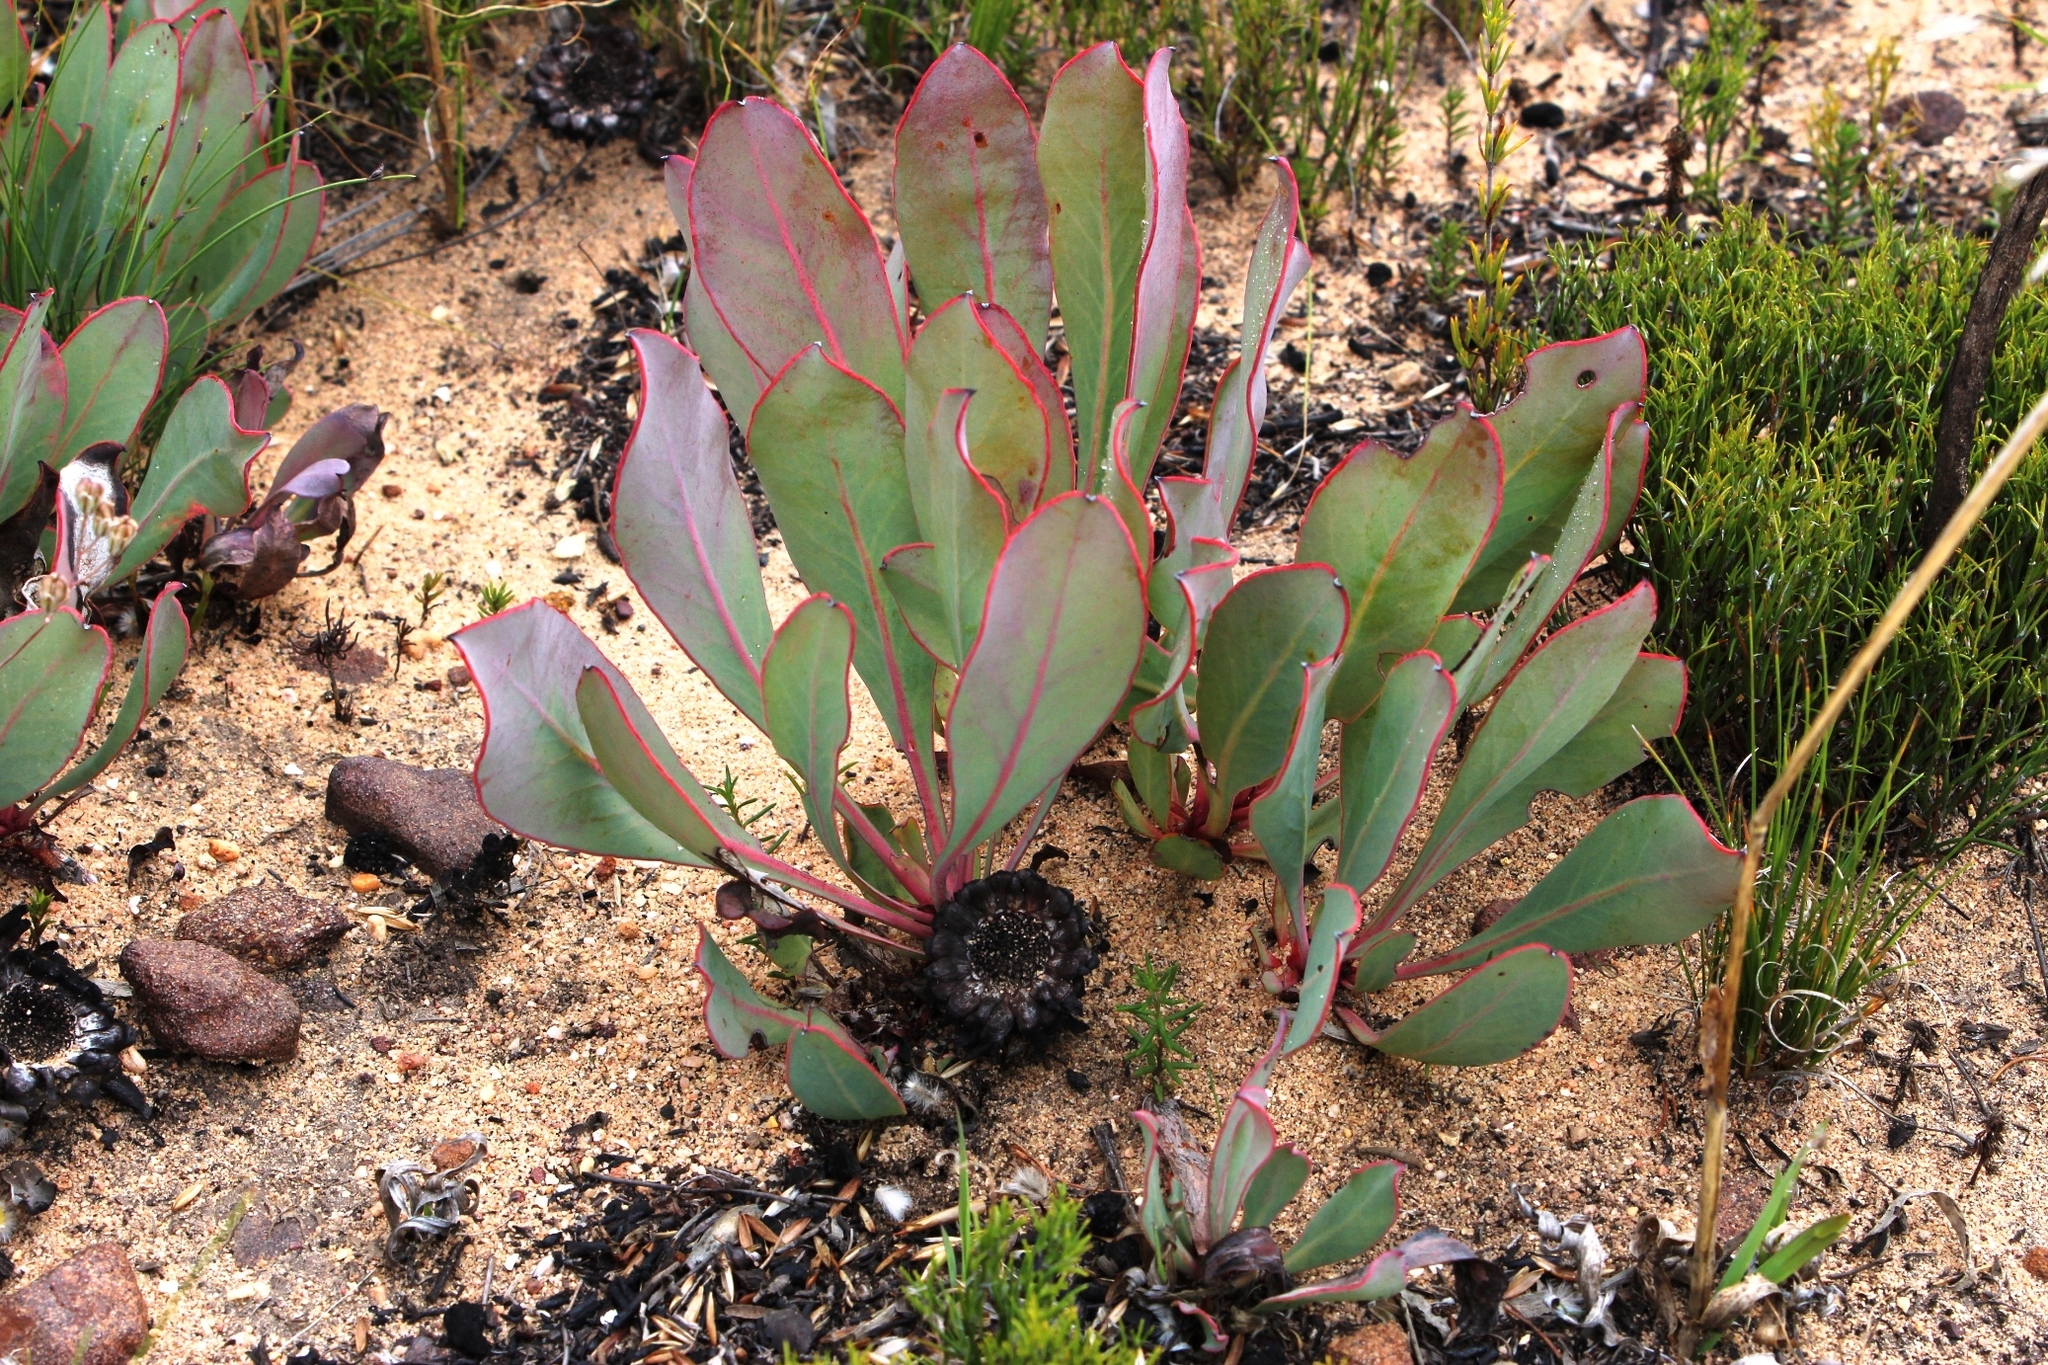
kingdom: Plantae
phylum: Tracheophyta
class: Magnoliopsida
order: Proteales
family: Proteaceae
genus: Protea
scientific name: Protea acaulos
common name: Common ground sugarbush
